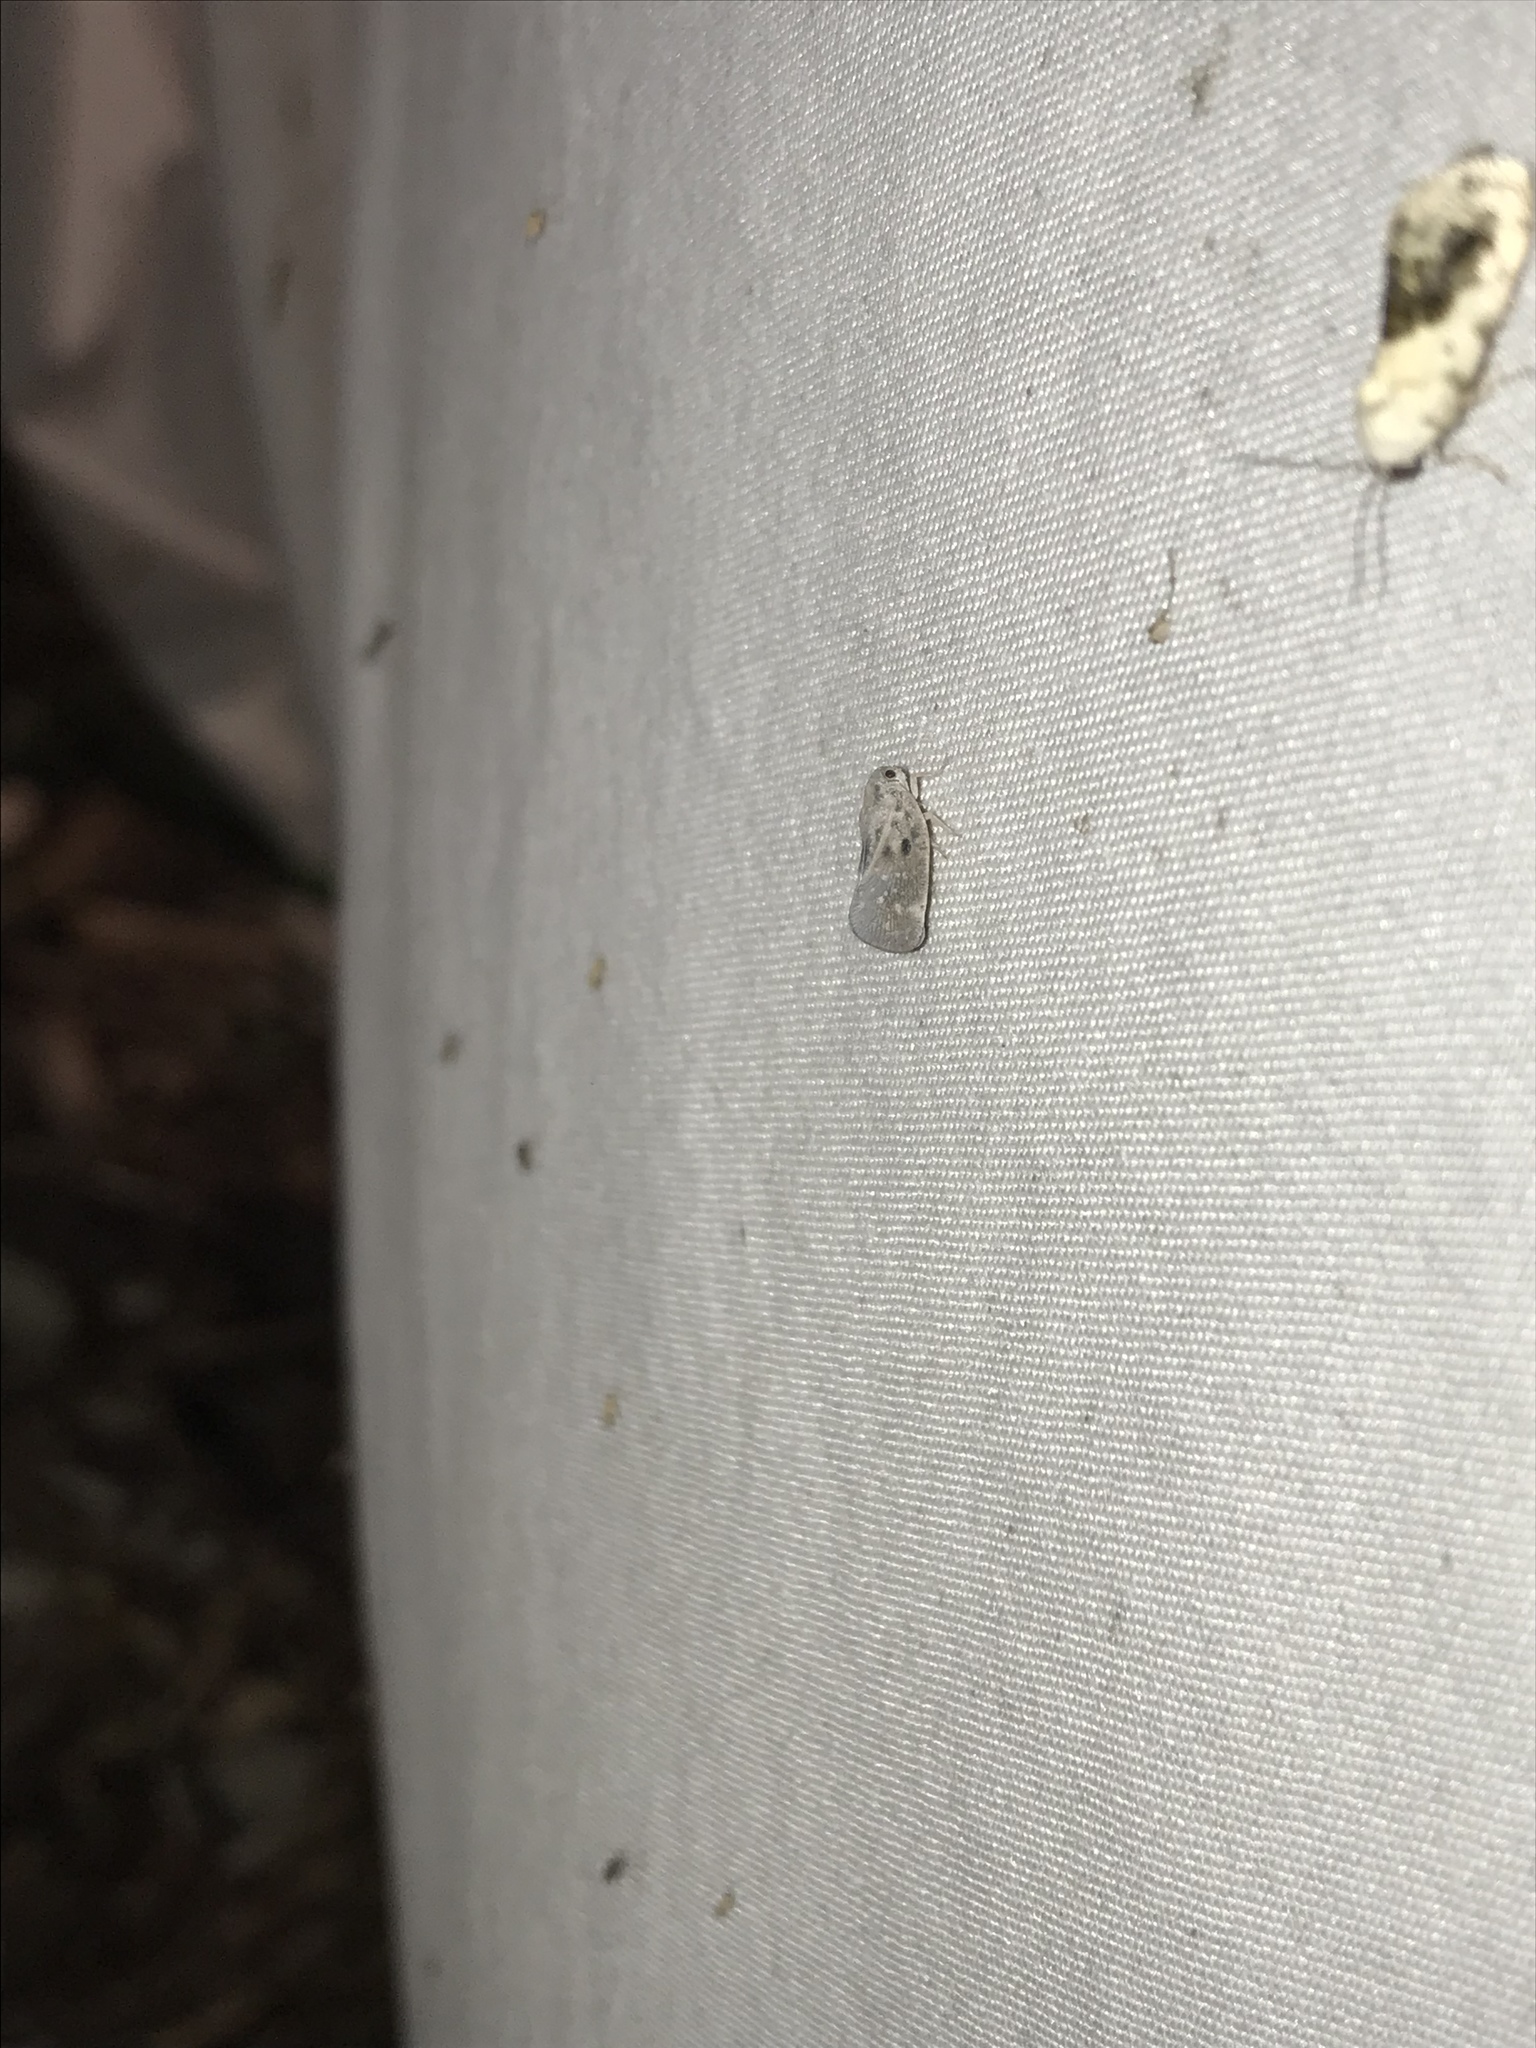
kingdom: Animalia
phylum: Arthropoda
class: Insecta
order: Hemiptera
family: Flatidae
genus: Metcalfa
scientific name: Metcalfa pruinosa
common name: Citrus flatid planthopper
